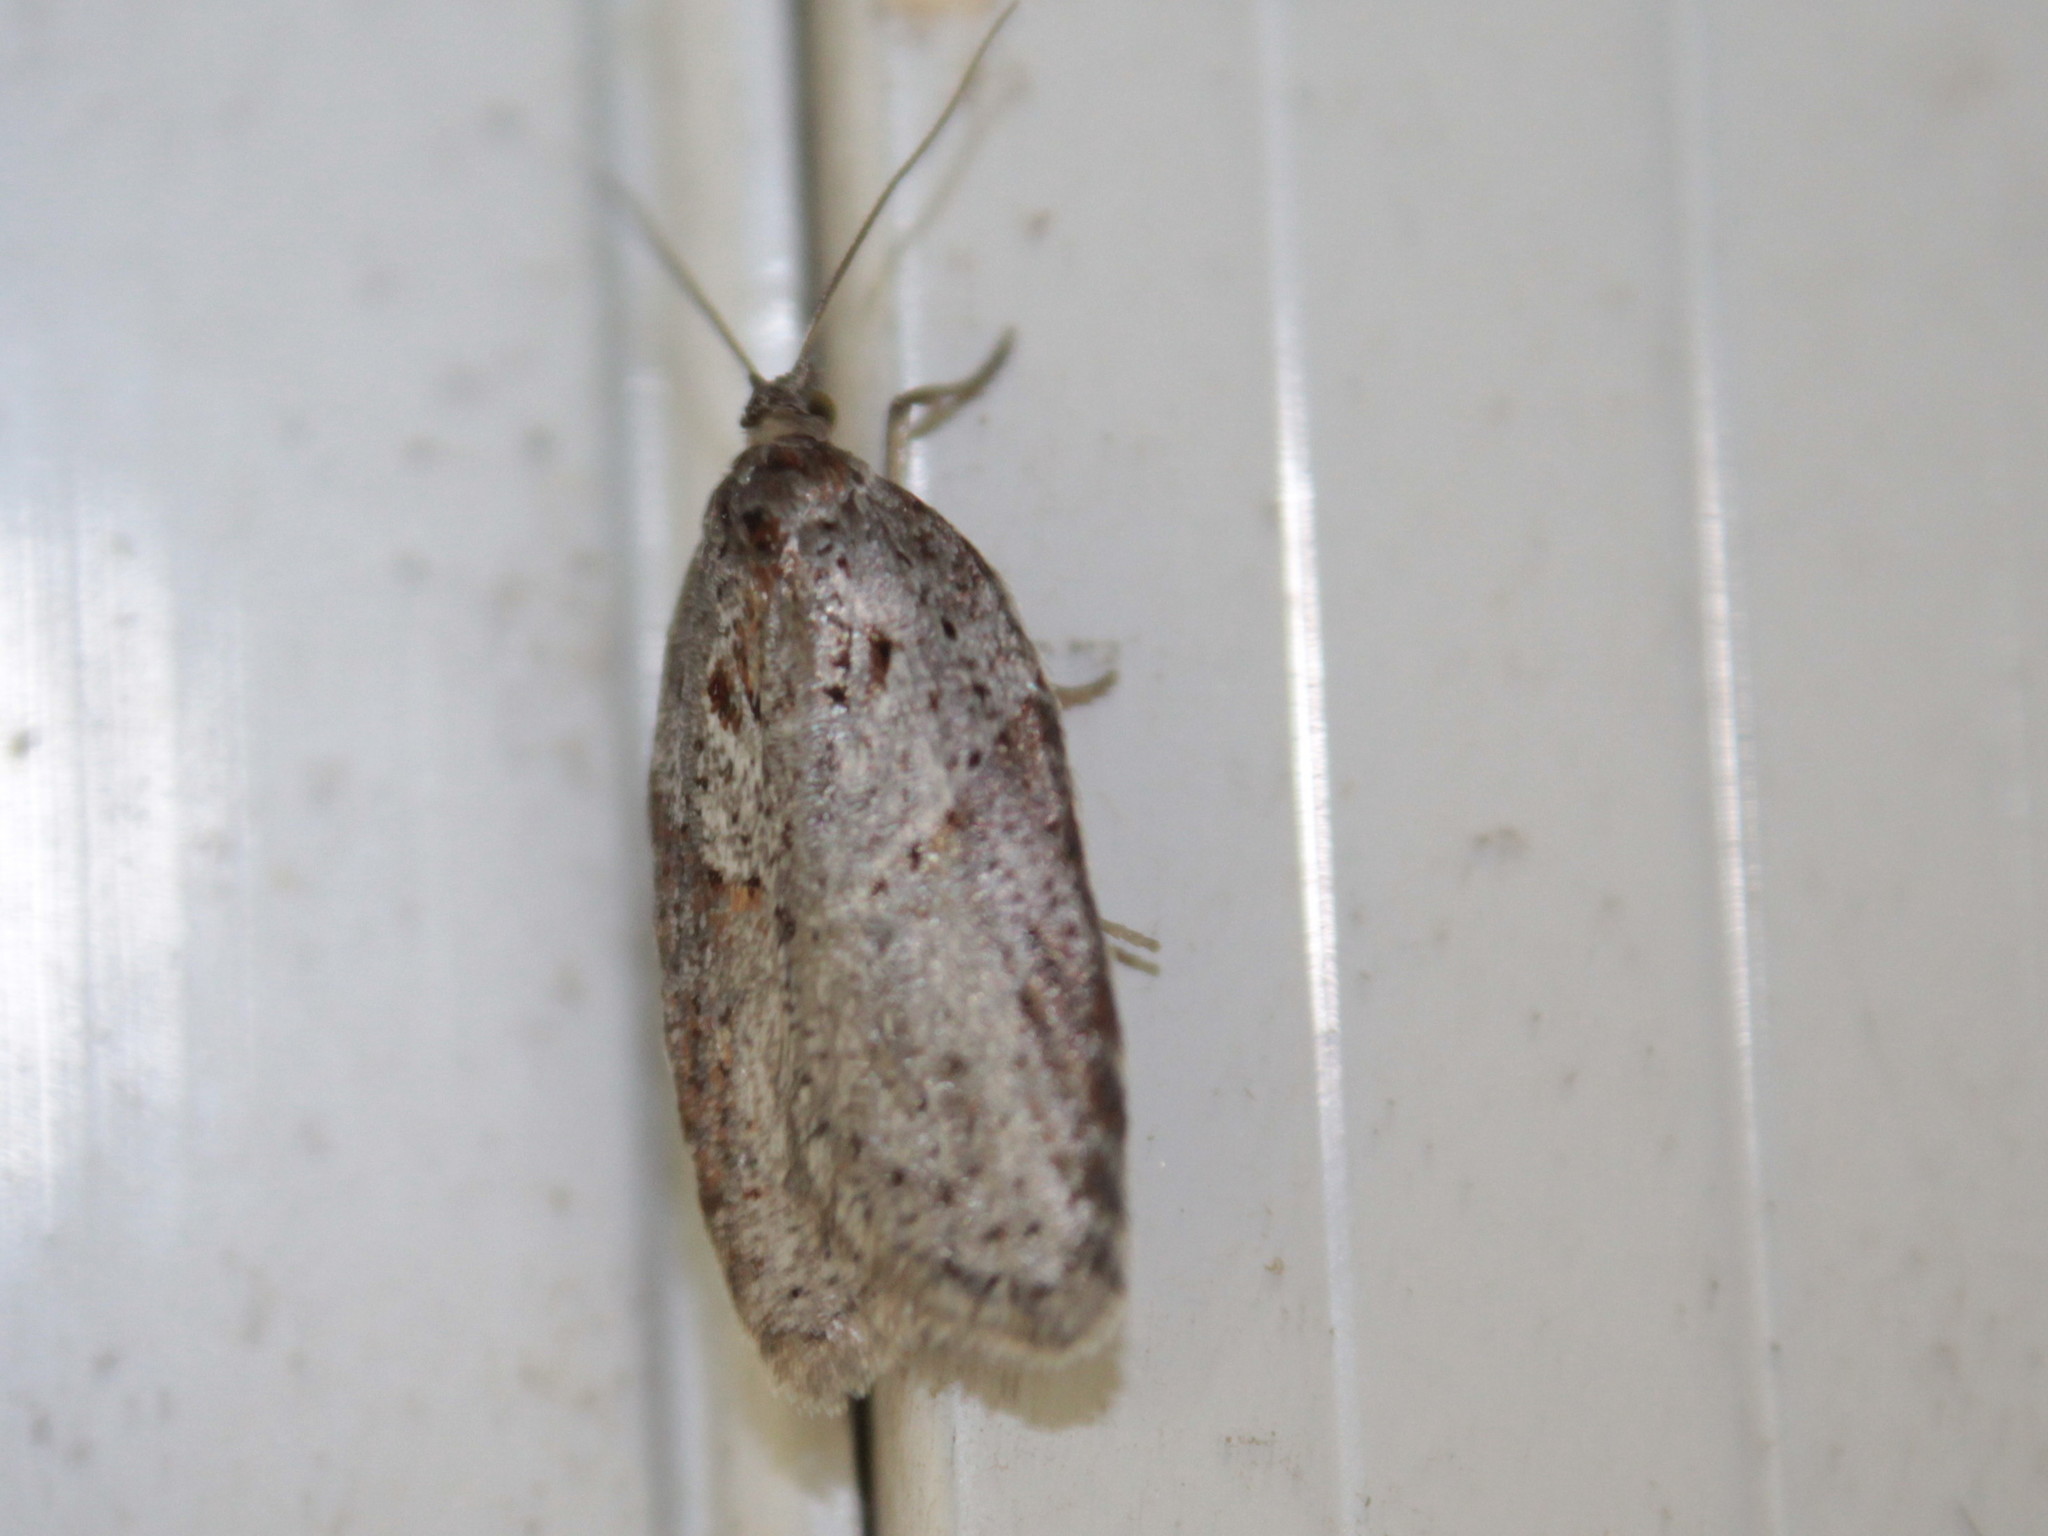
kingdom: Animalia
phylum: Arthropoda
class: Insecta
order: Lepidoptera
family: Tortricidae
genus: Acleris
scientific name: Acleris maculidorsana
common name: Stained-back leafroller moth
